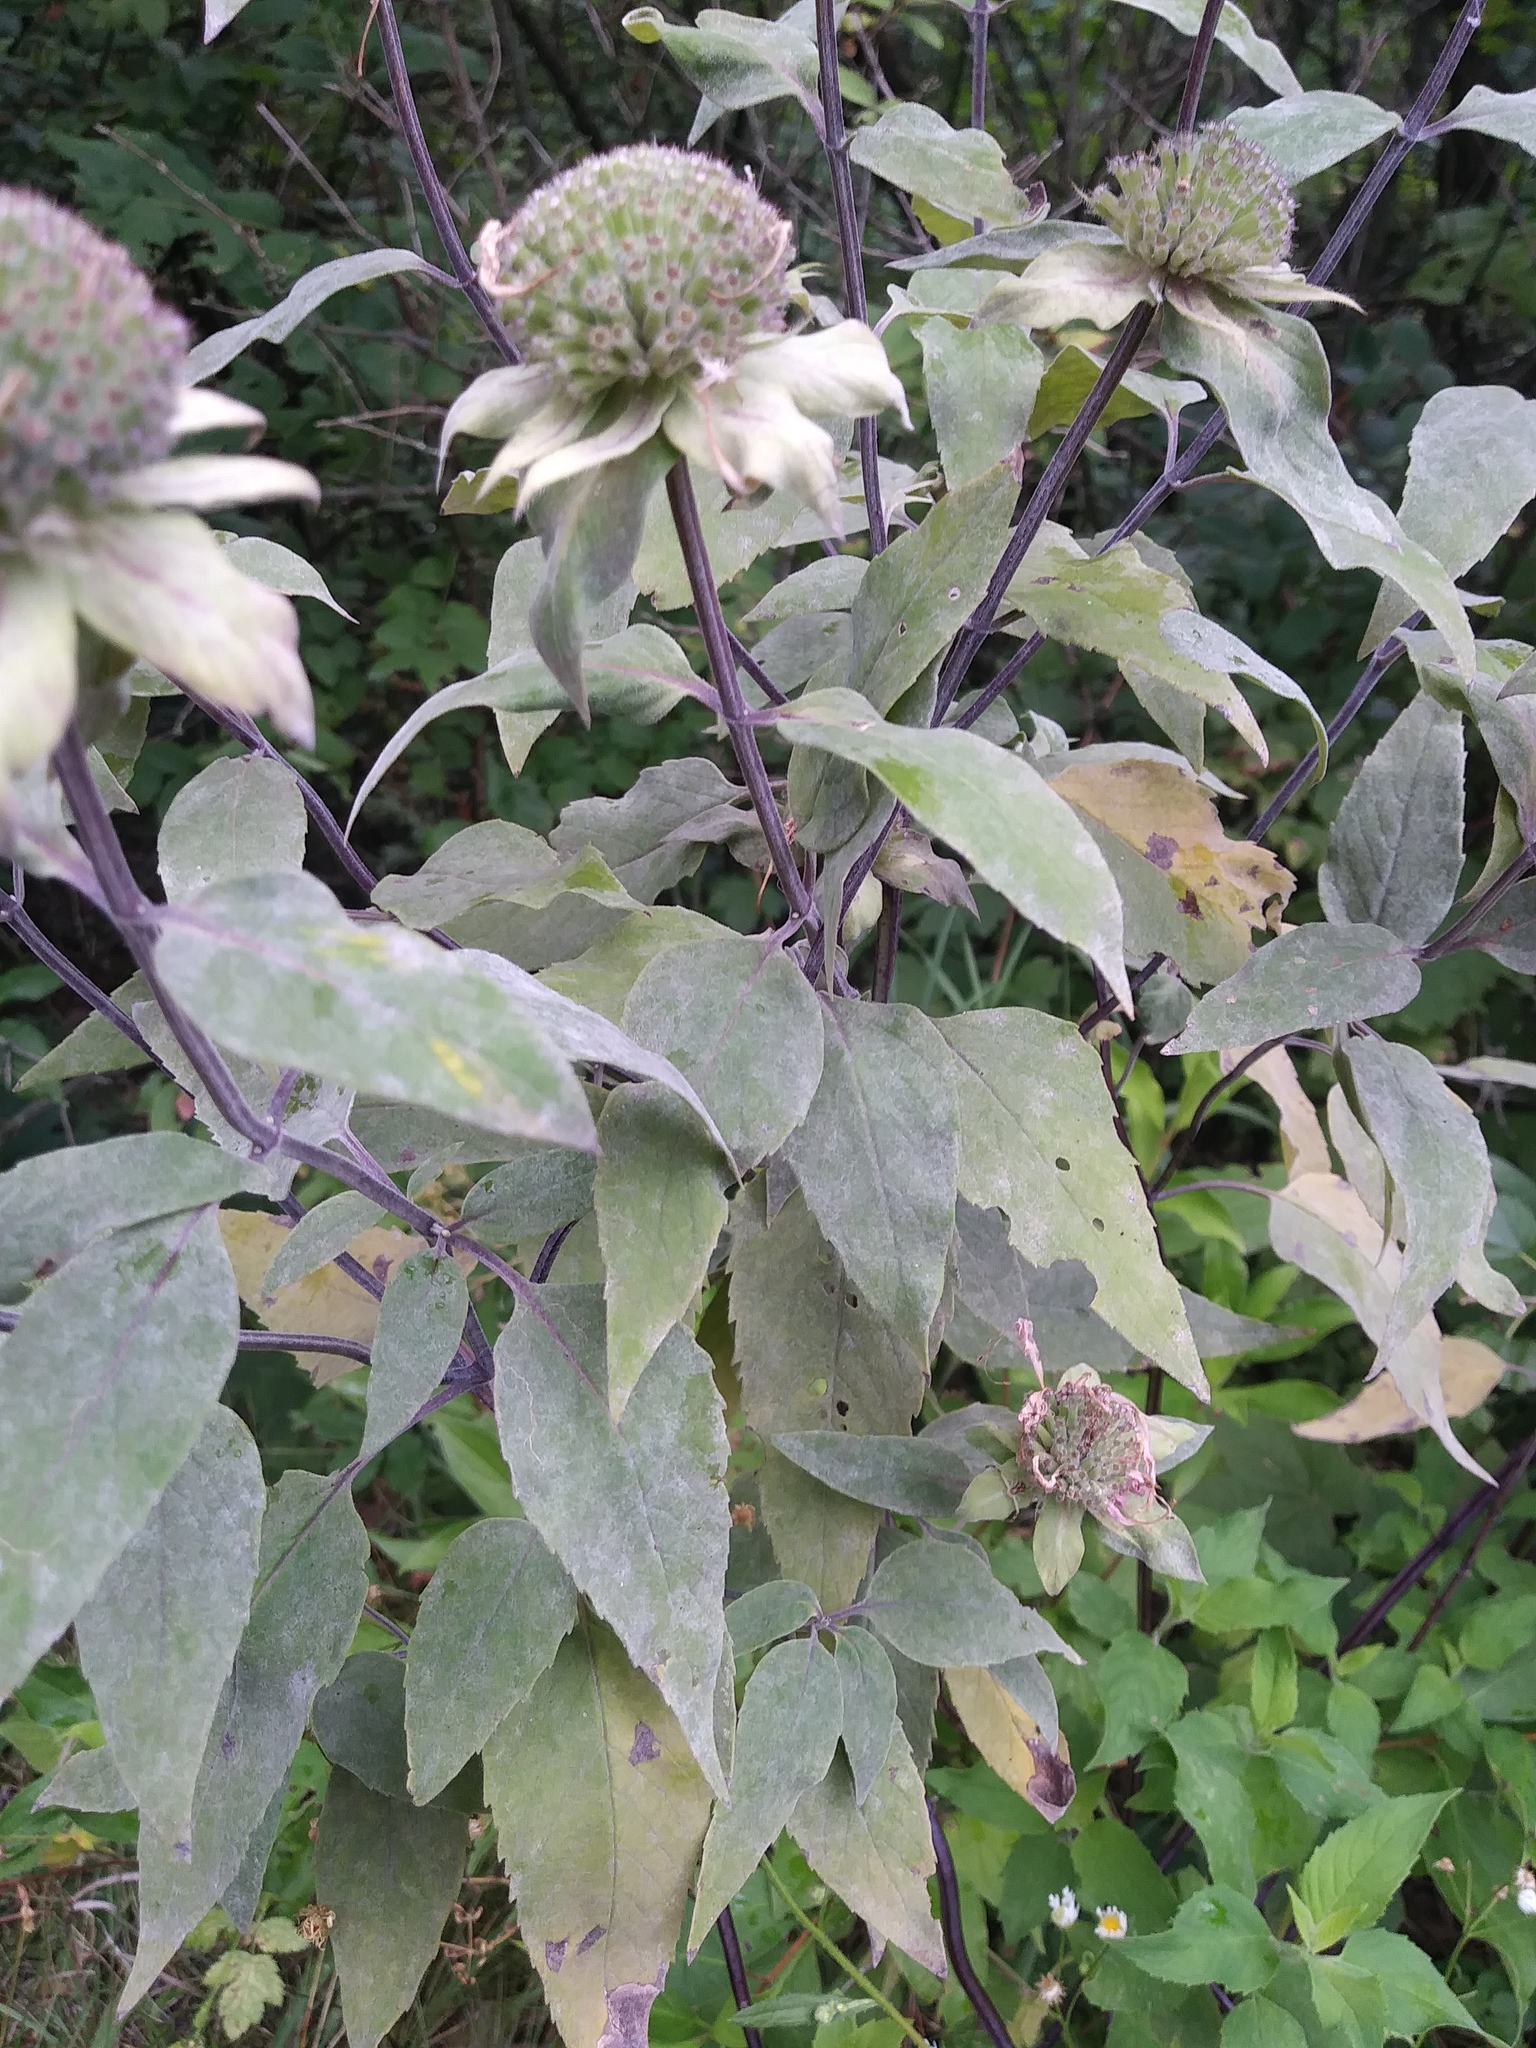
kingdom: Plantae
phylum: Tracheophyta
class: Magnoliopsida
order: Lamiales
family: Lamiaceae
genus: Monarda
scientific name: Monarda fistulosa
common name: Purple beebalm
